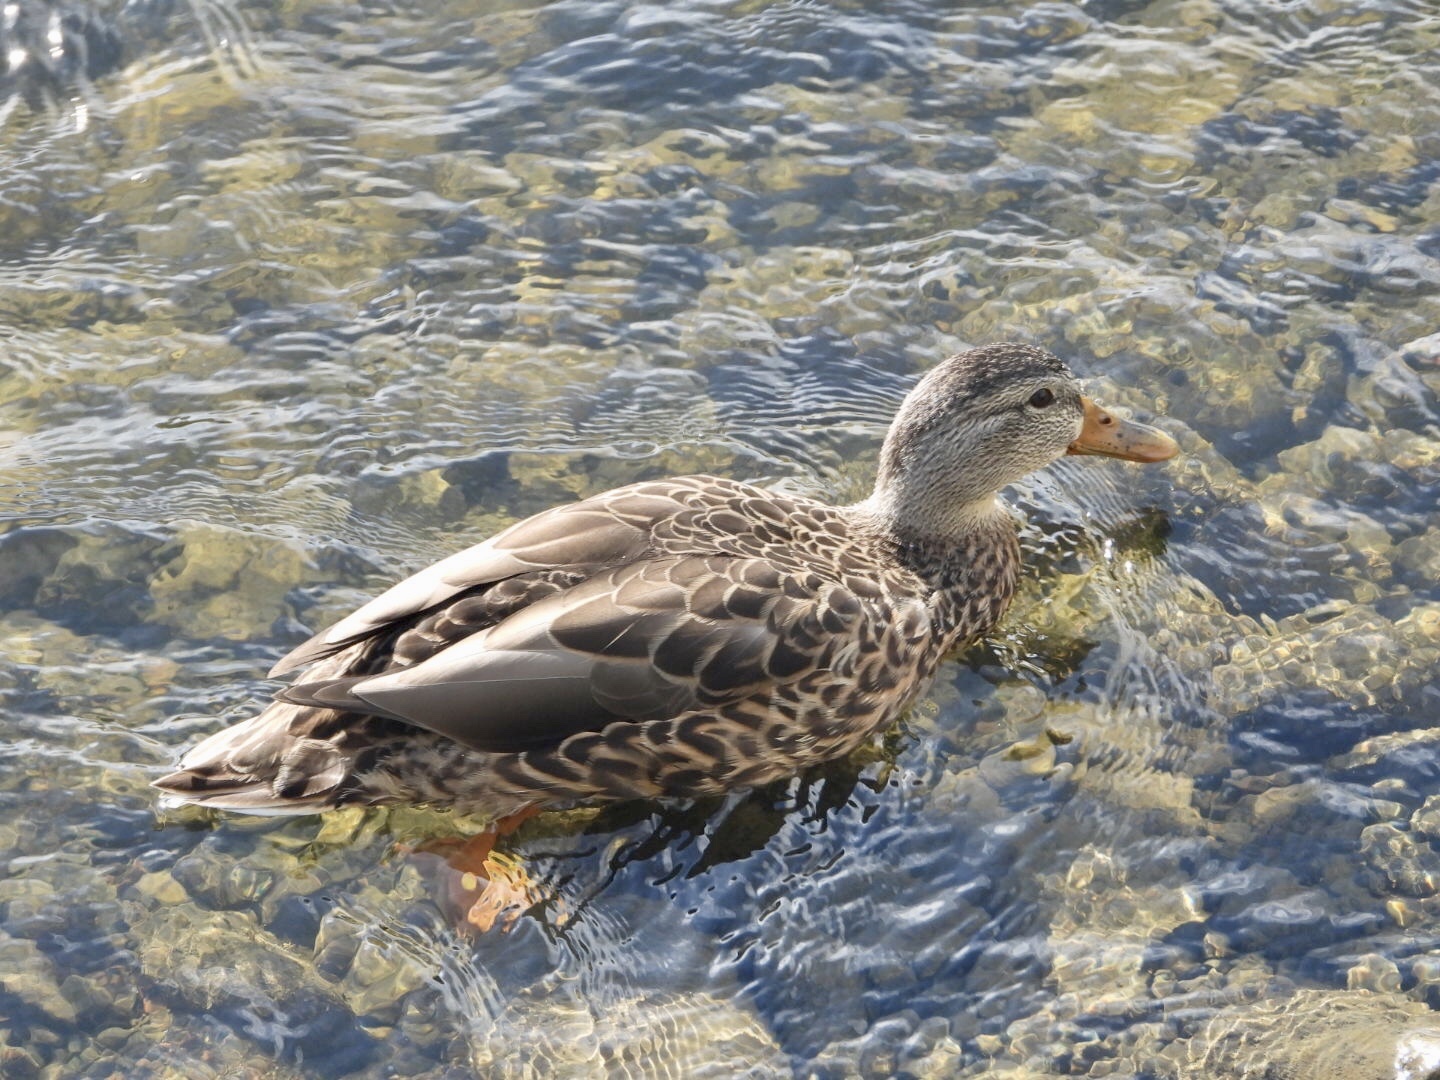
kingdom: Animalia
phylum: Chordata
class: Aves
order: Anseriformes
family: Anatidae
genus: Anas
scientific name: Anas platyrhynchos
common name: Mallard
